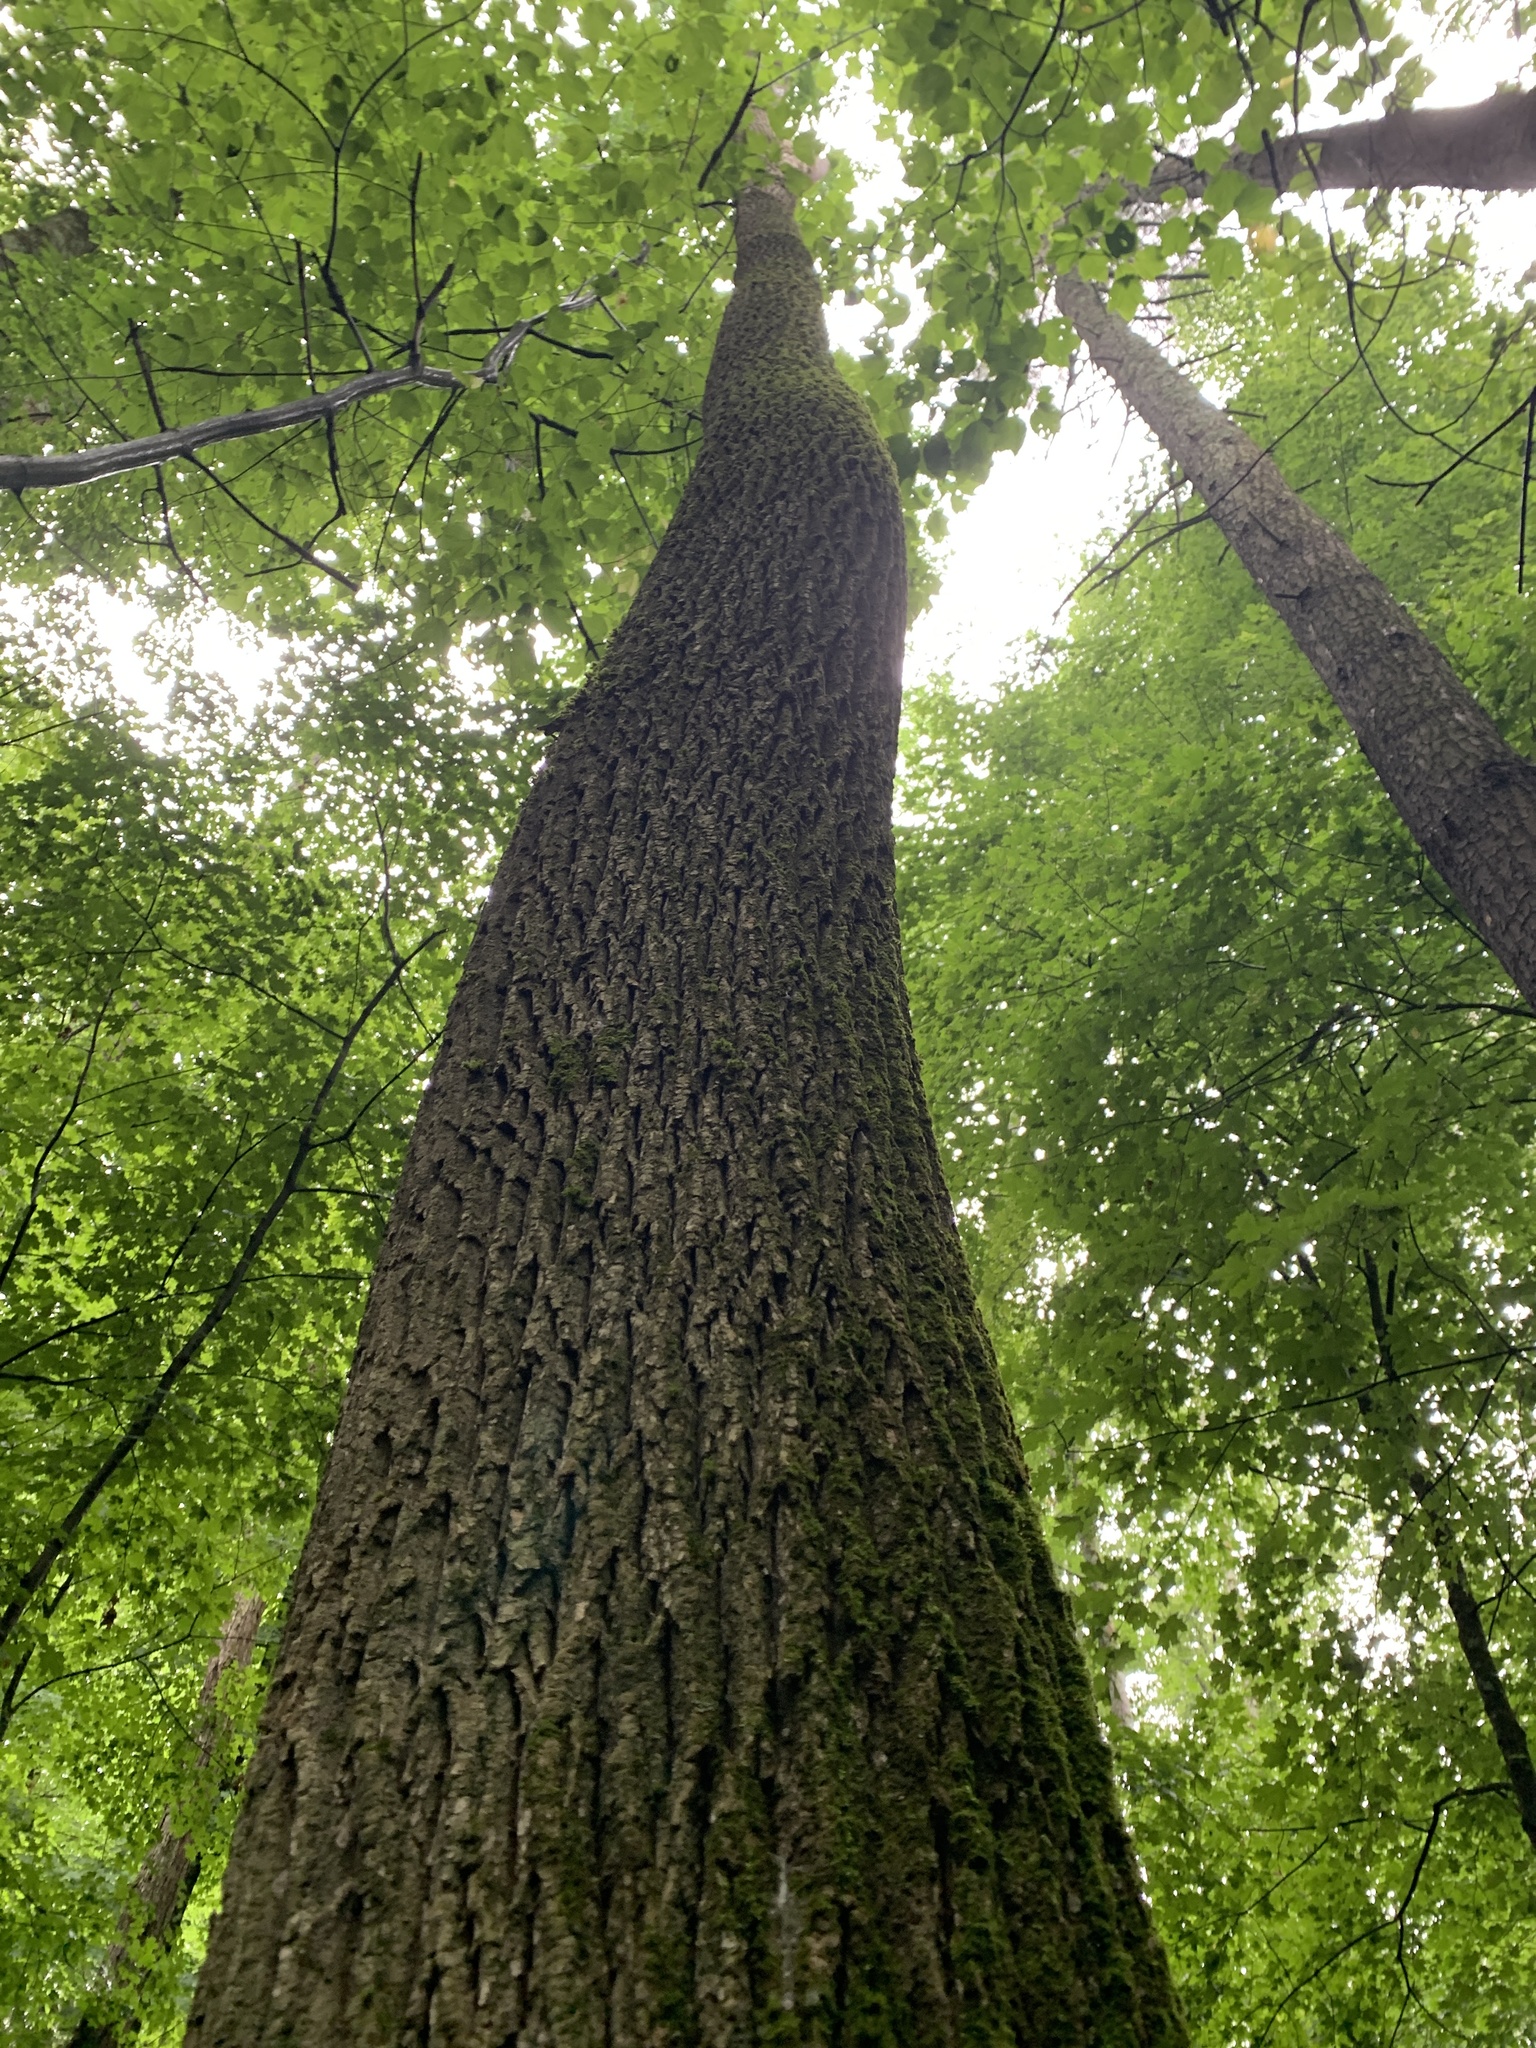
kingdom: Plantae
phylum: Tracheophyta
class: Magnoliopsida
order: Lamiales
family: Oleaceae
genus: Fraxinus
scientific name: Fraxinus americana
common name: White ash
